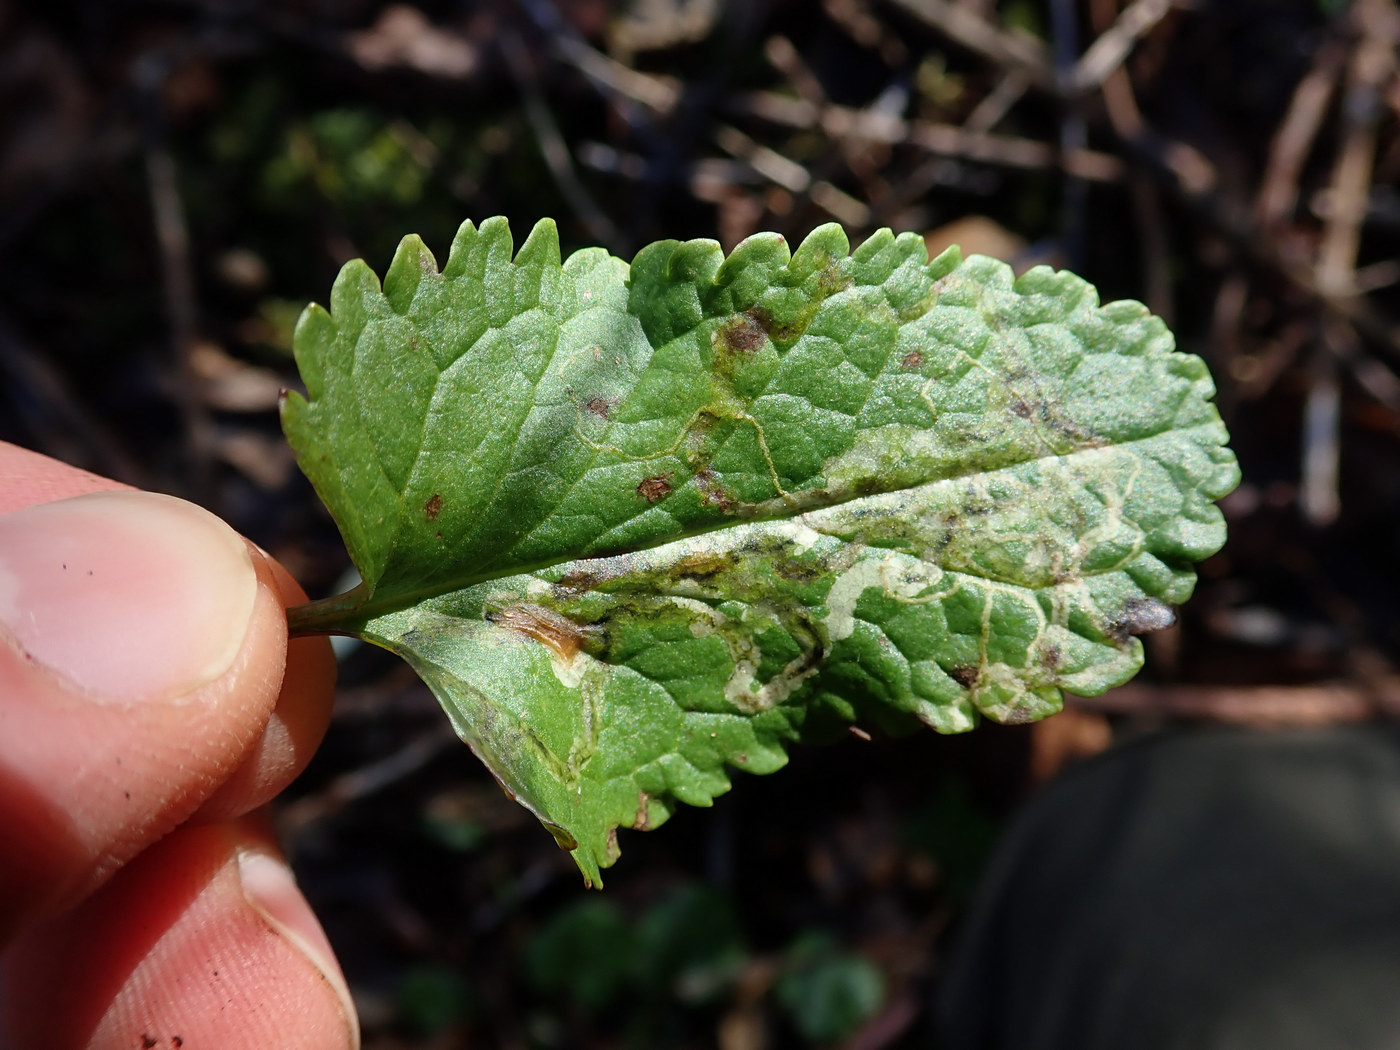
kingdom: Animalia
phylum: Arthropoda
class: Insecta
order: Lepidoptera
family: Gracillariidae
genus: Phyllocnistis
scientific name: Phyllocnistis insignis
